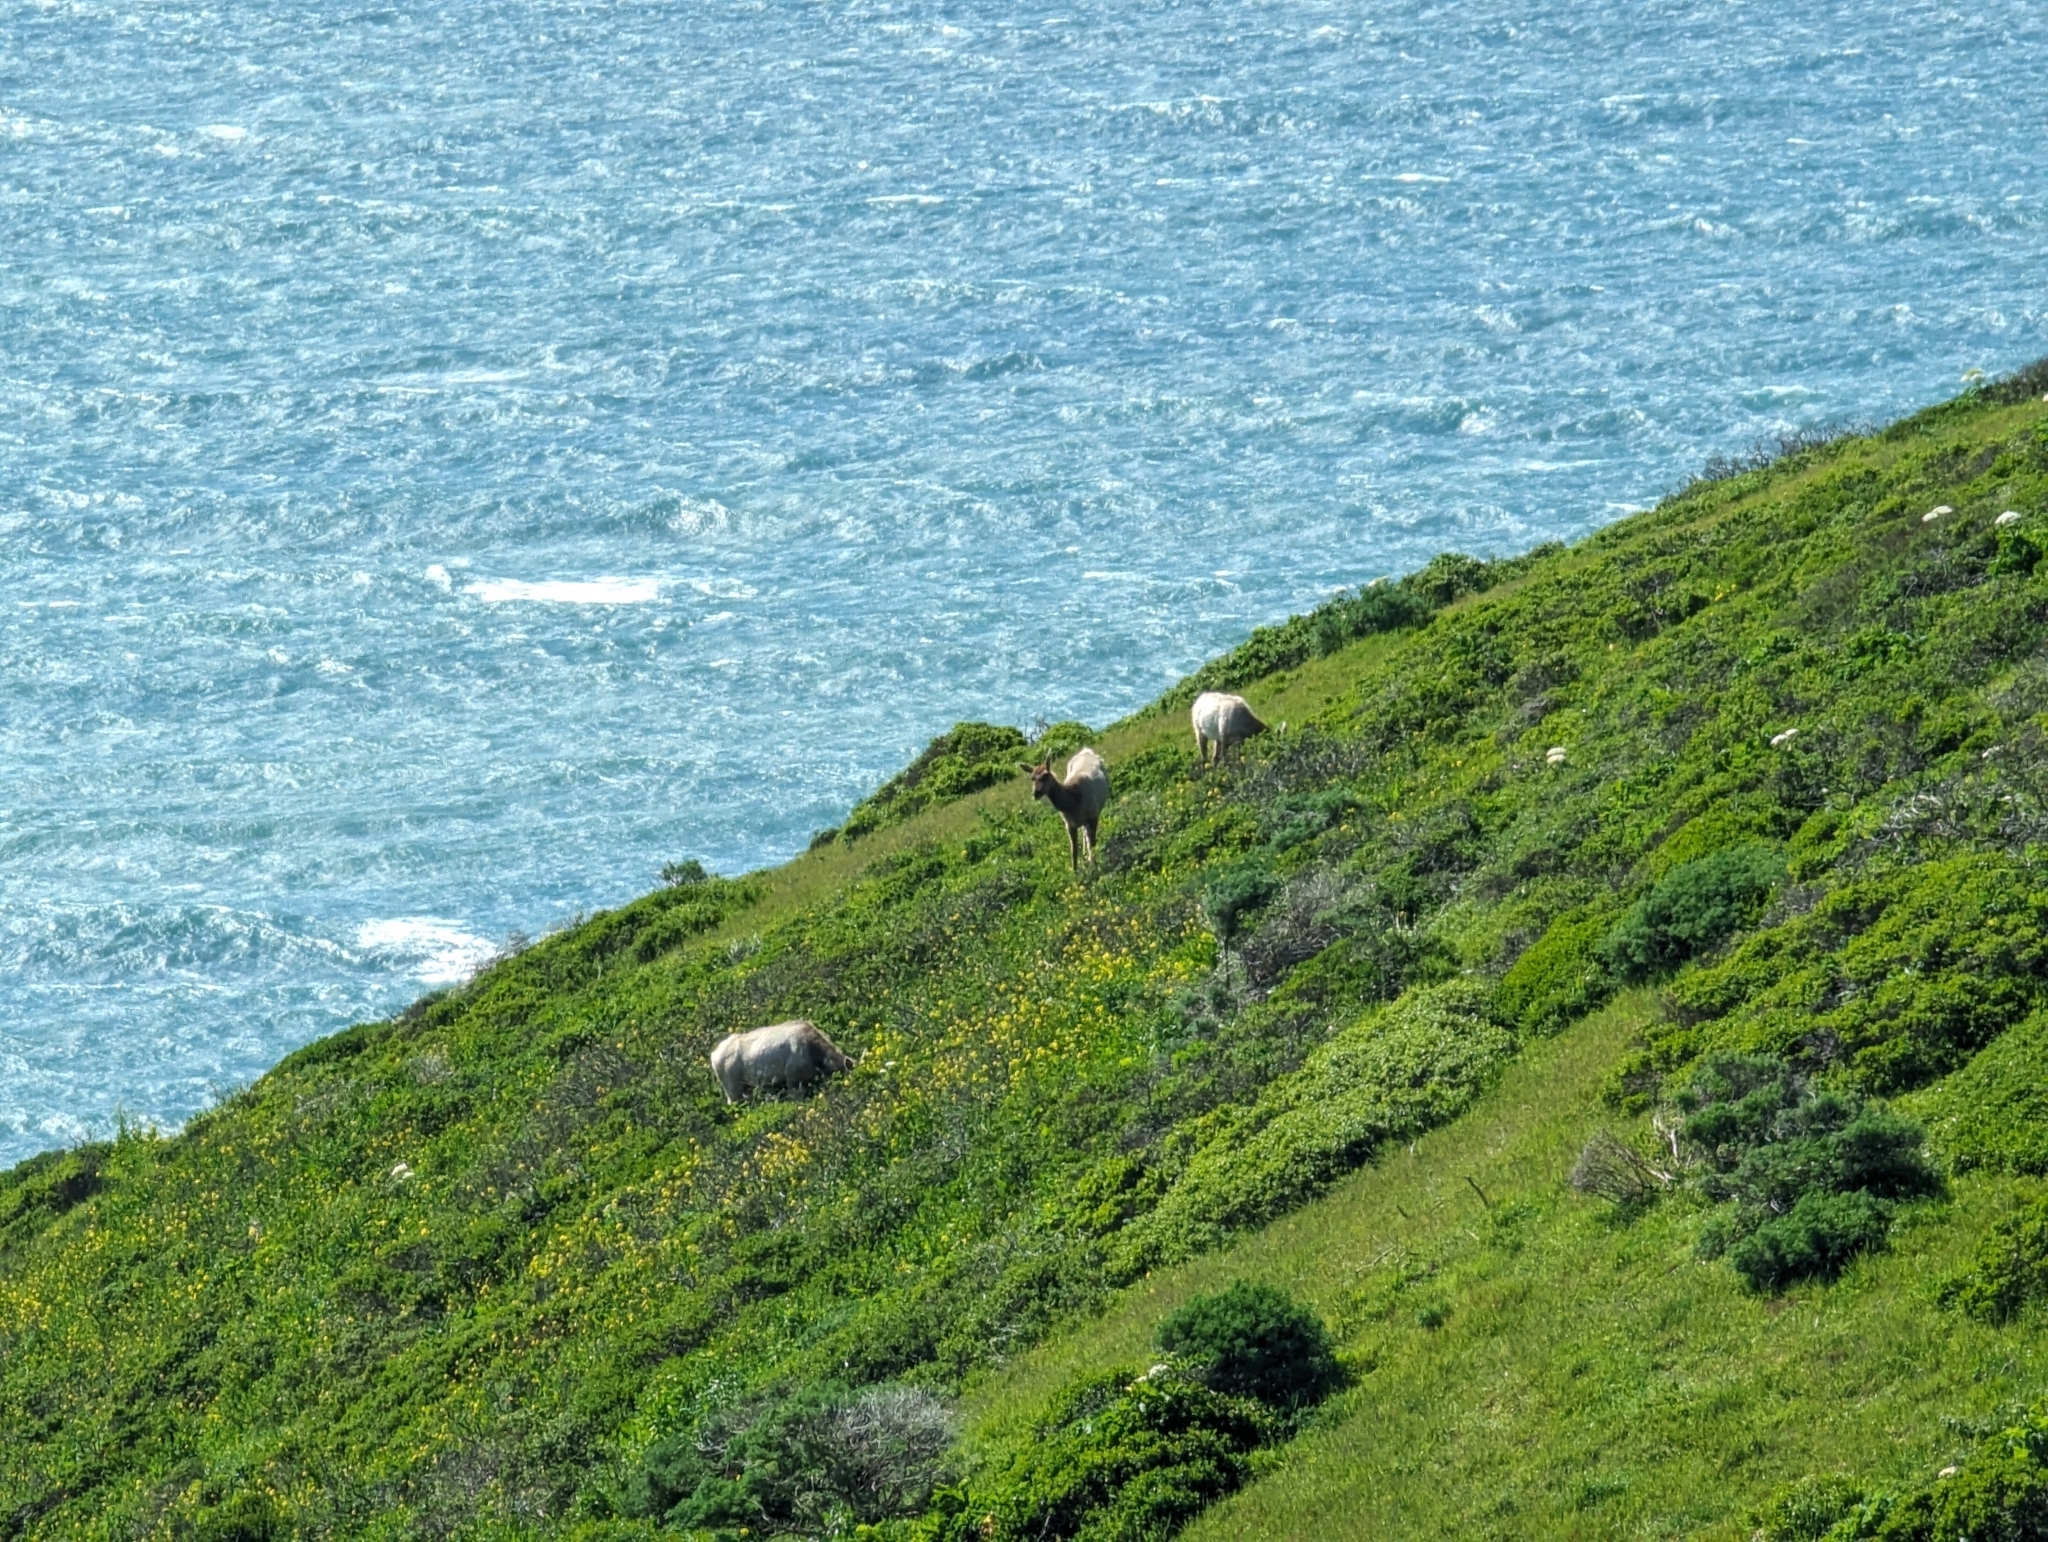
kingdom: Animalia
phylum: Chordata
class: Mammalia
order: Artiodactyla
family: Cervidae
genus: Cervus
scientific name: Cervus elaphus
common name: Red deer
